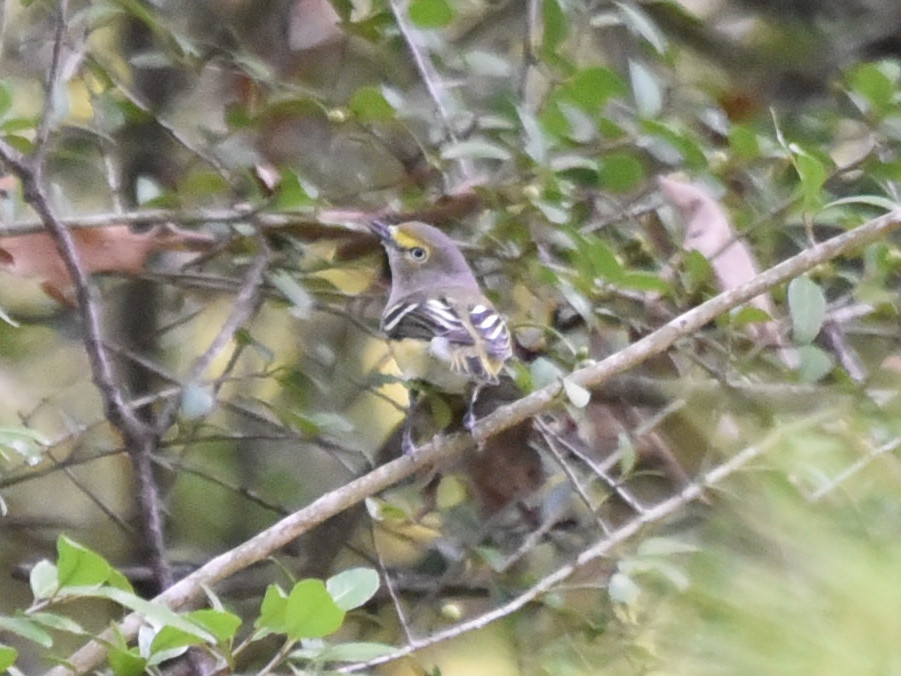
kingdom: Animalia
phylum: Chordata
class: Aves
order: Passeriformes
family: Vireonidae
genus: Vireo
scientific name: Vireo griseus
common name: White-eyed vireo
